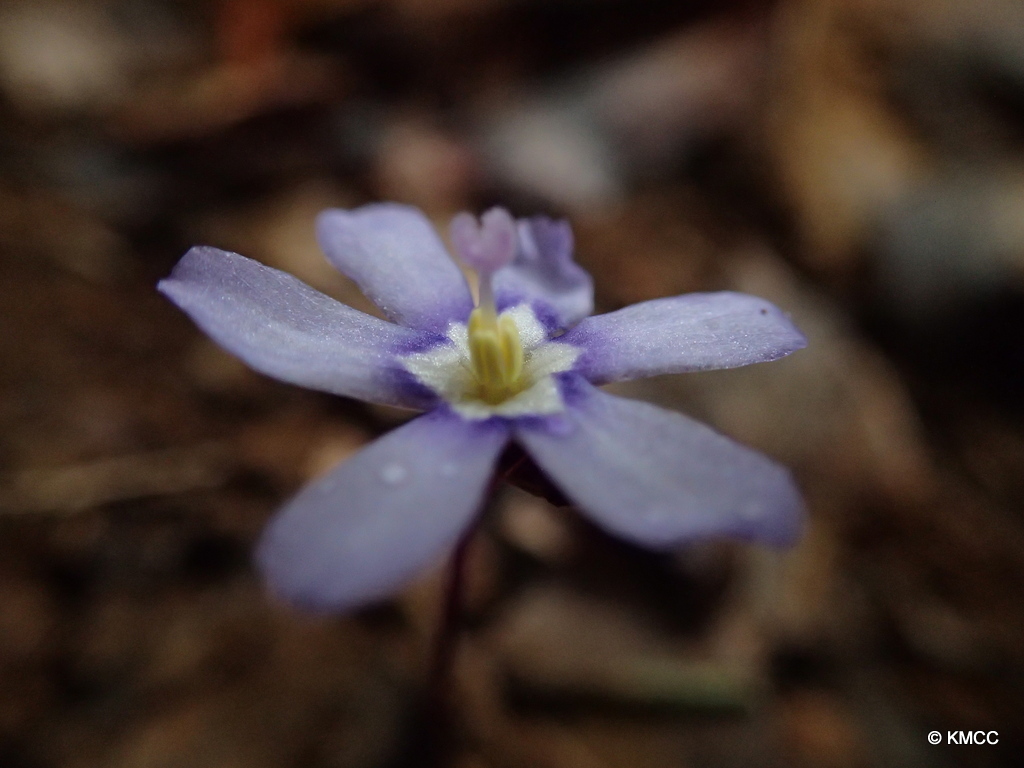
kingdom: Plantae
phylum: Tracheophyta
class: Liliopsida
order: Asparagales
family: Iridaceae
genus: Geosiris
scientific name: Geosiris aphylla
